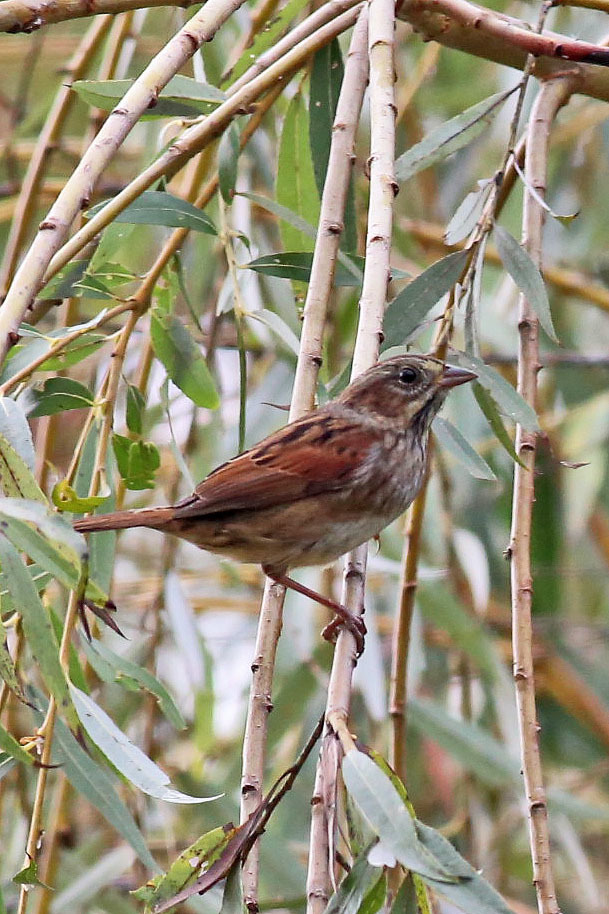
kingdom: Animalia
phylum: Chordata
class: Aves
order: Passeriformes
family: Passerellidae
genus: Melospiza
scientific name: Melospiza georgiana
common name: Swamp sparrow
